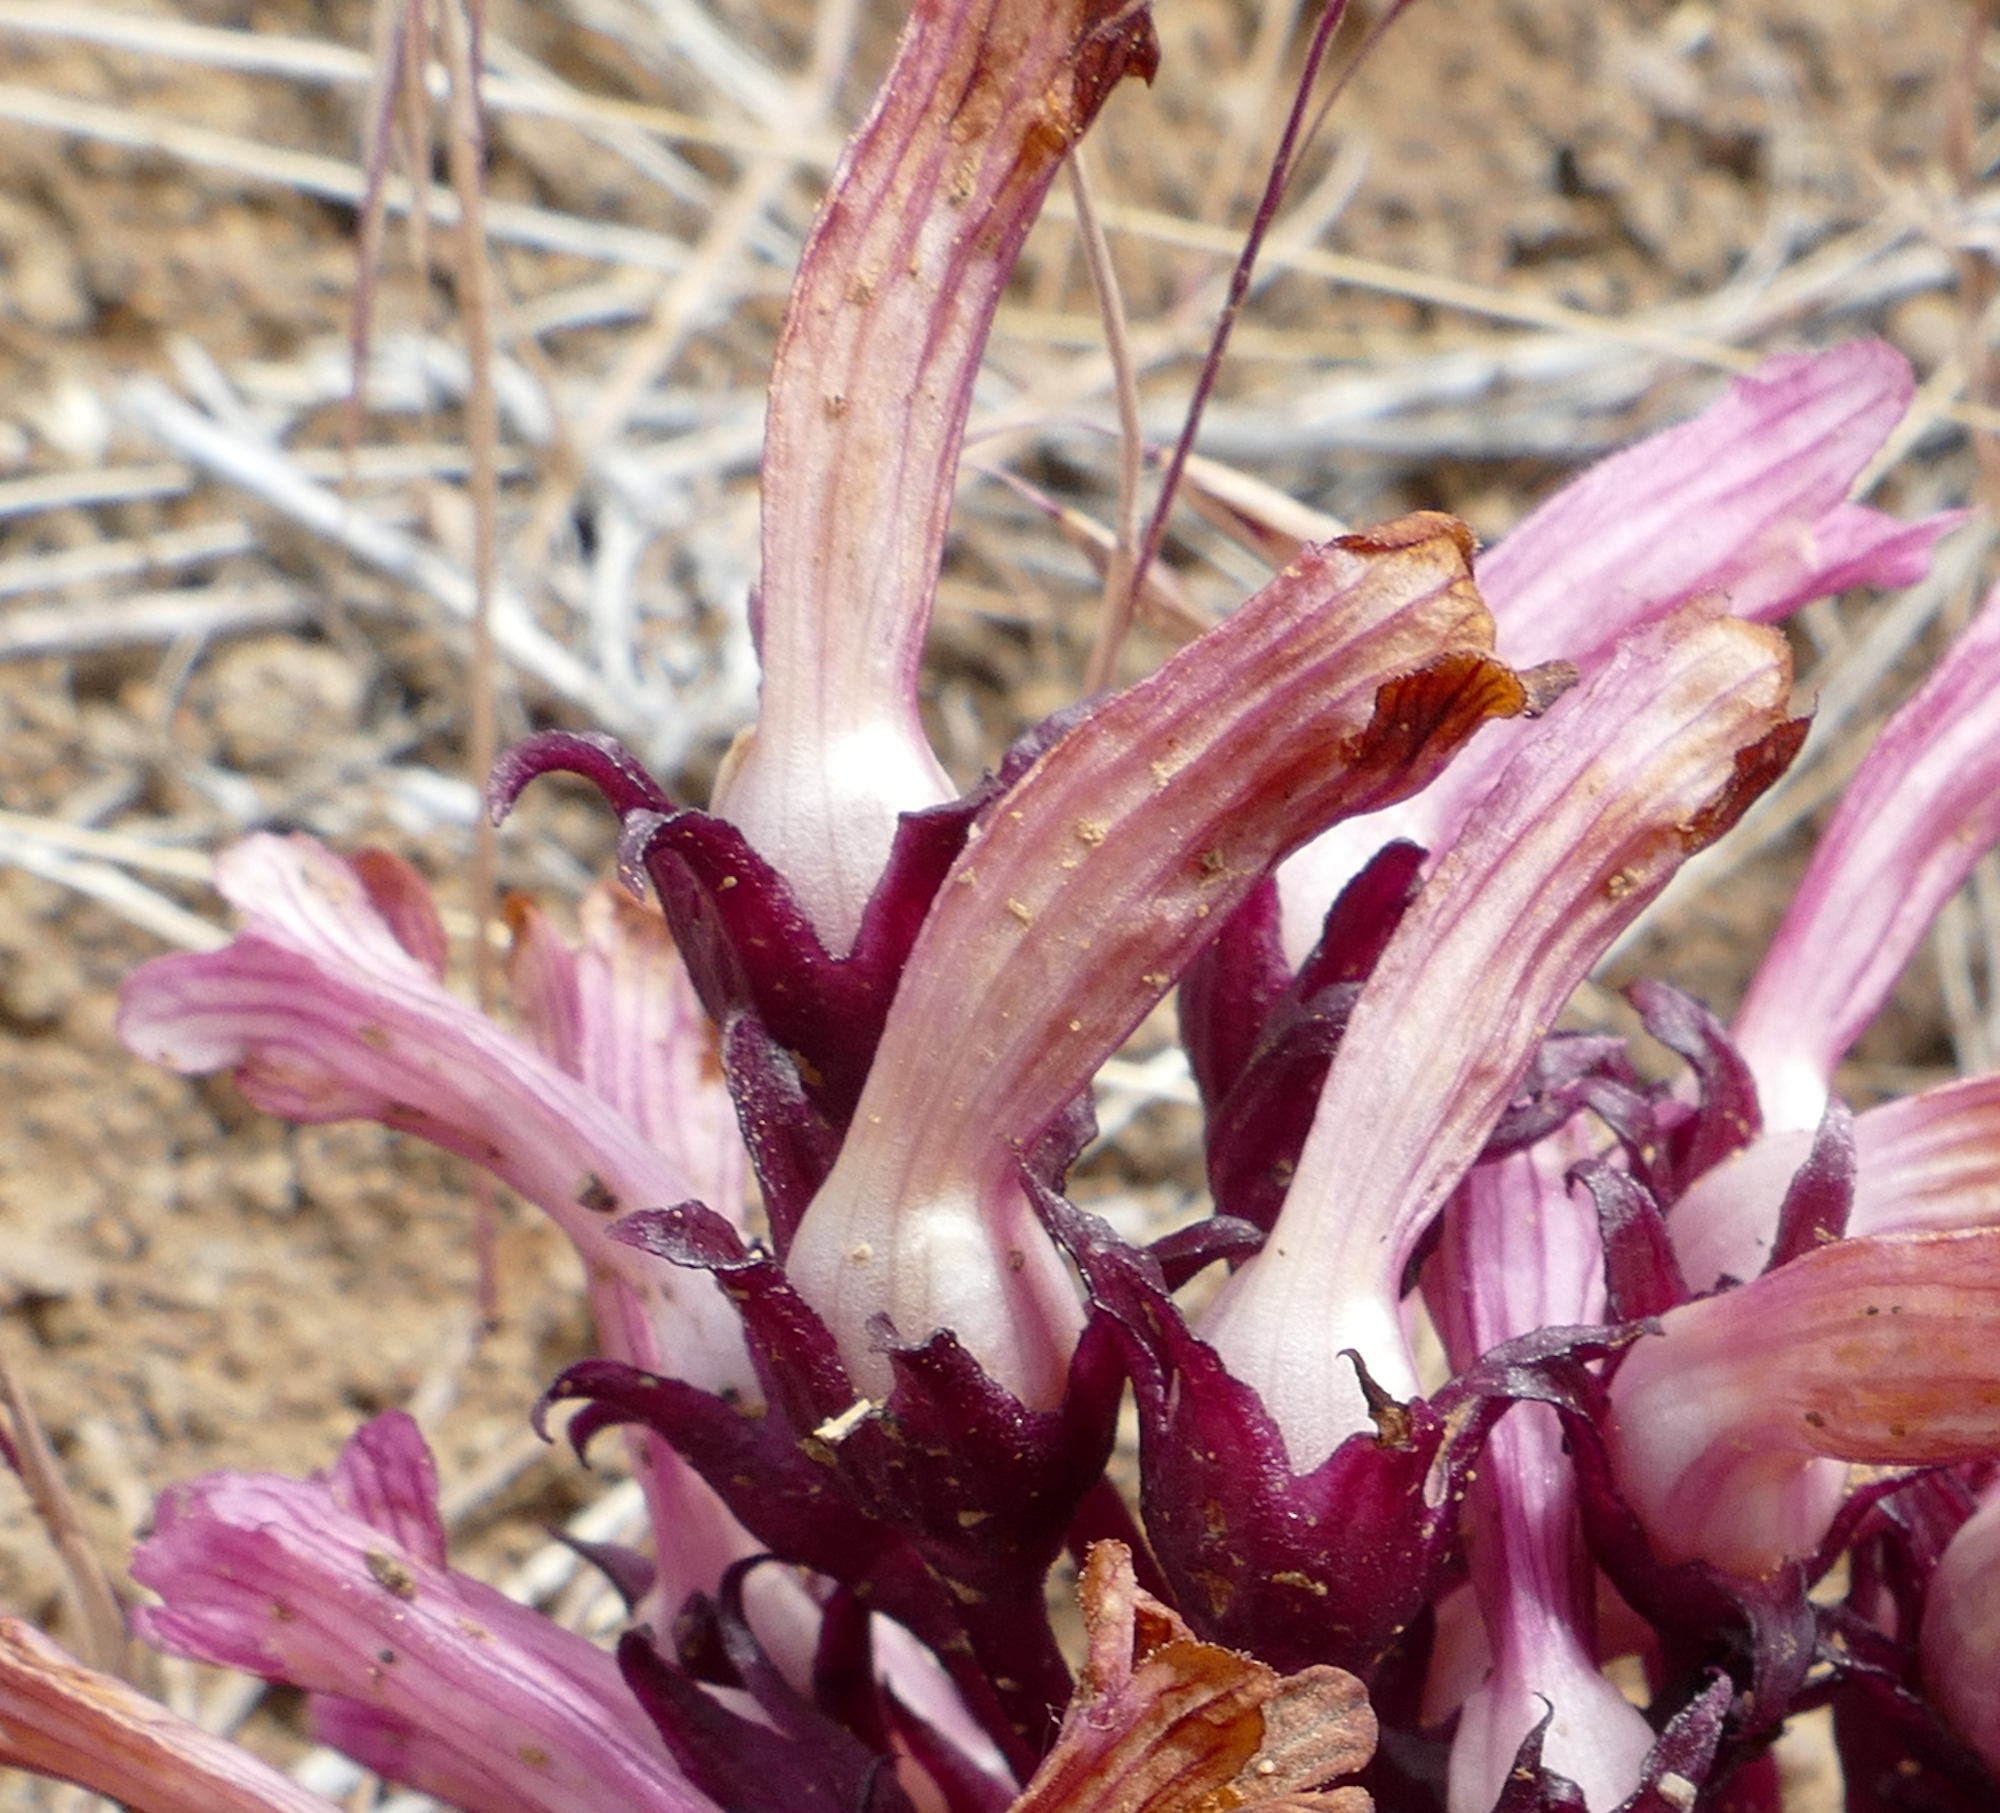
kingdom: Plantae
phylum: Tracheophyta
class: Magnoliopsida
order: Lamiales
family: Orobanchaceae
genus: Aphyllon
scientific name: Aphyllon fasciculatum
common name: Clustered broomrape
